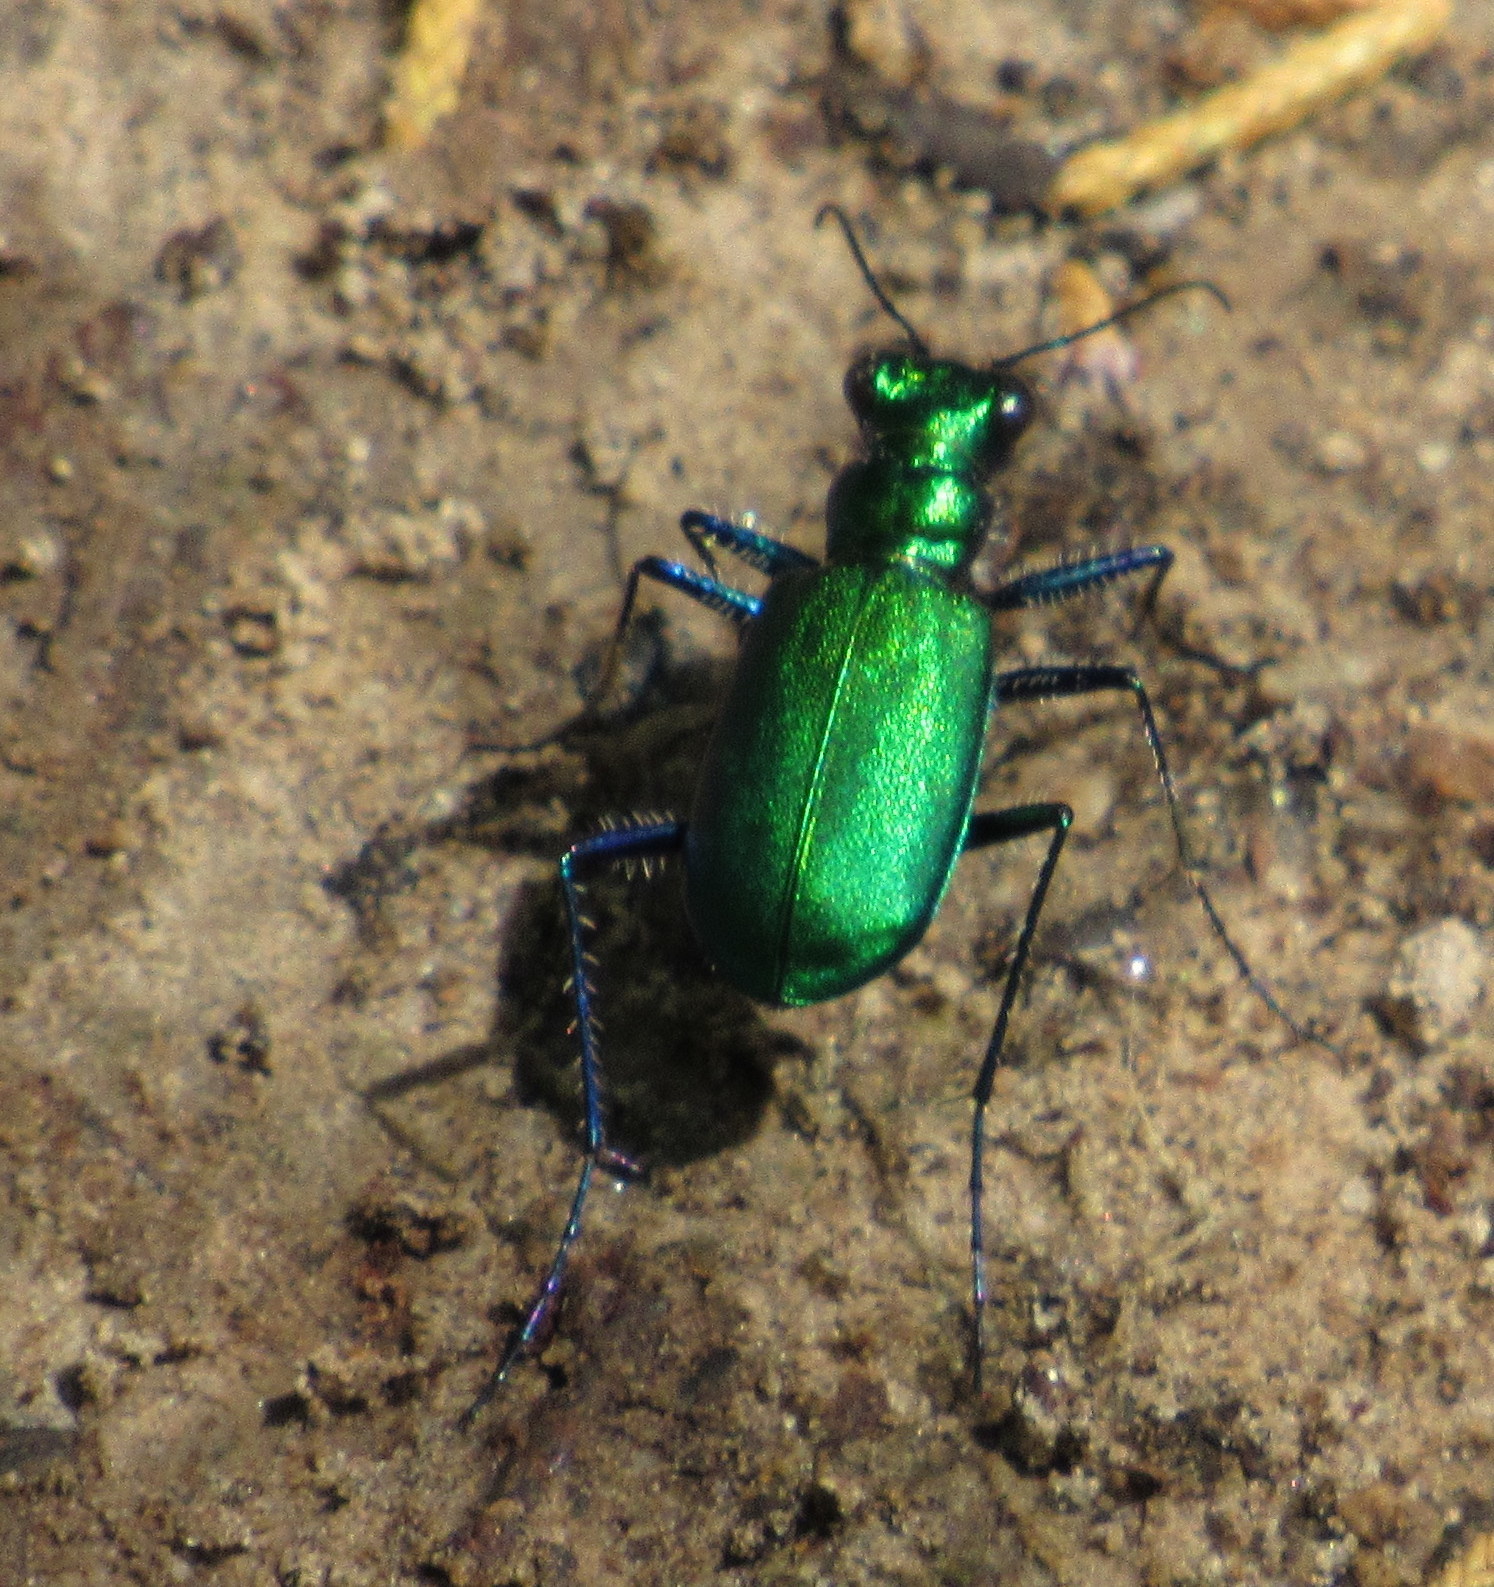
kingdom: Animalia
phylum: Arthropoda
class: Insecta
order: Coleoptera
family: Carabidae
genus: Cicindela
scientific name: Cicindela sexguttata
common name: Six-spotted tiger beetle
